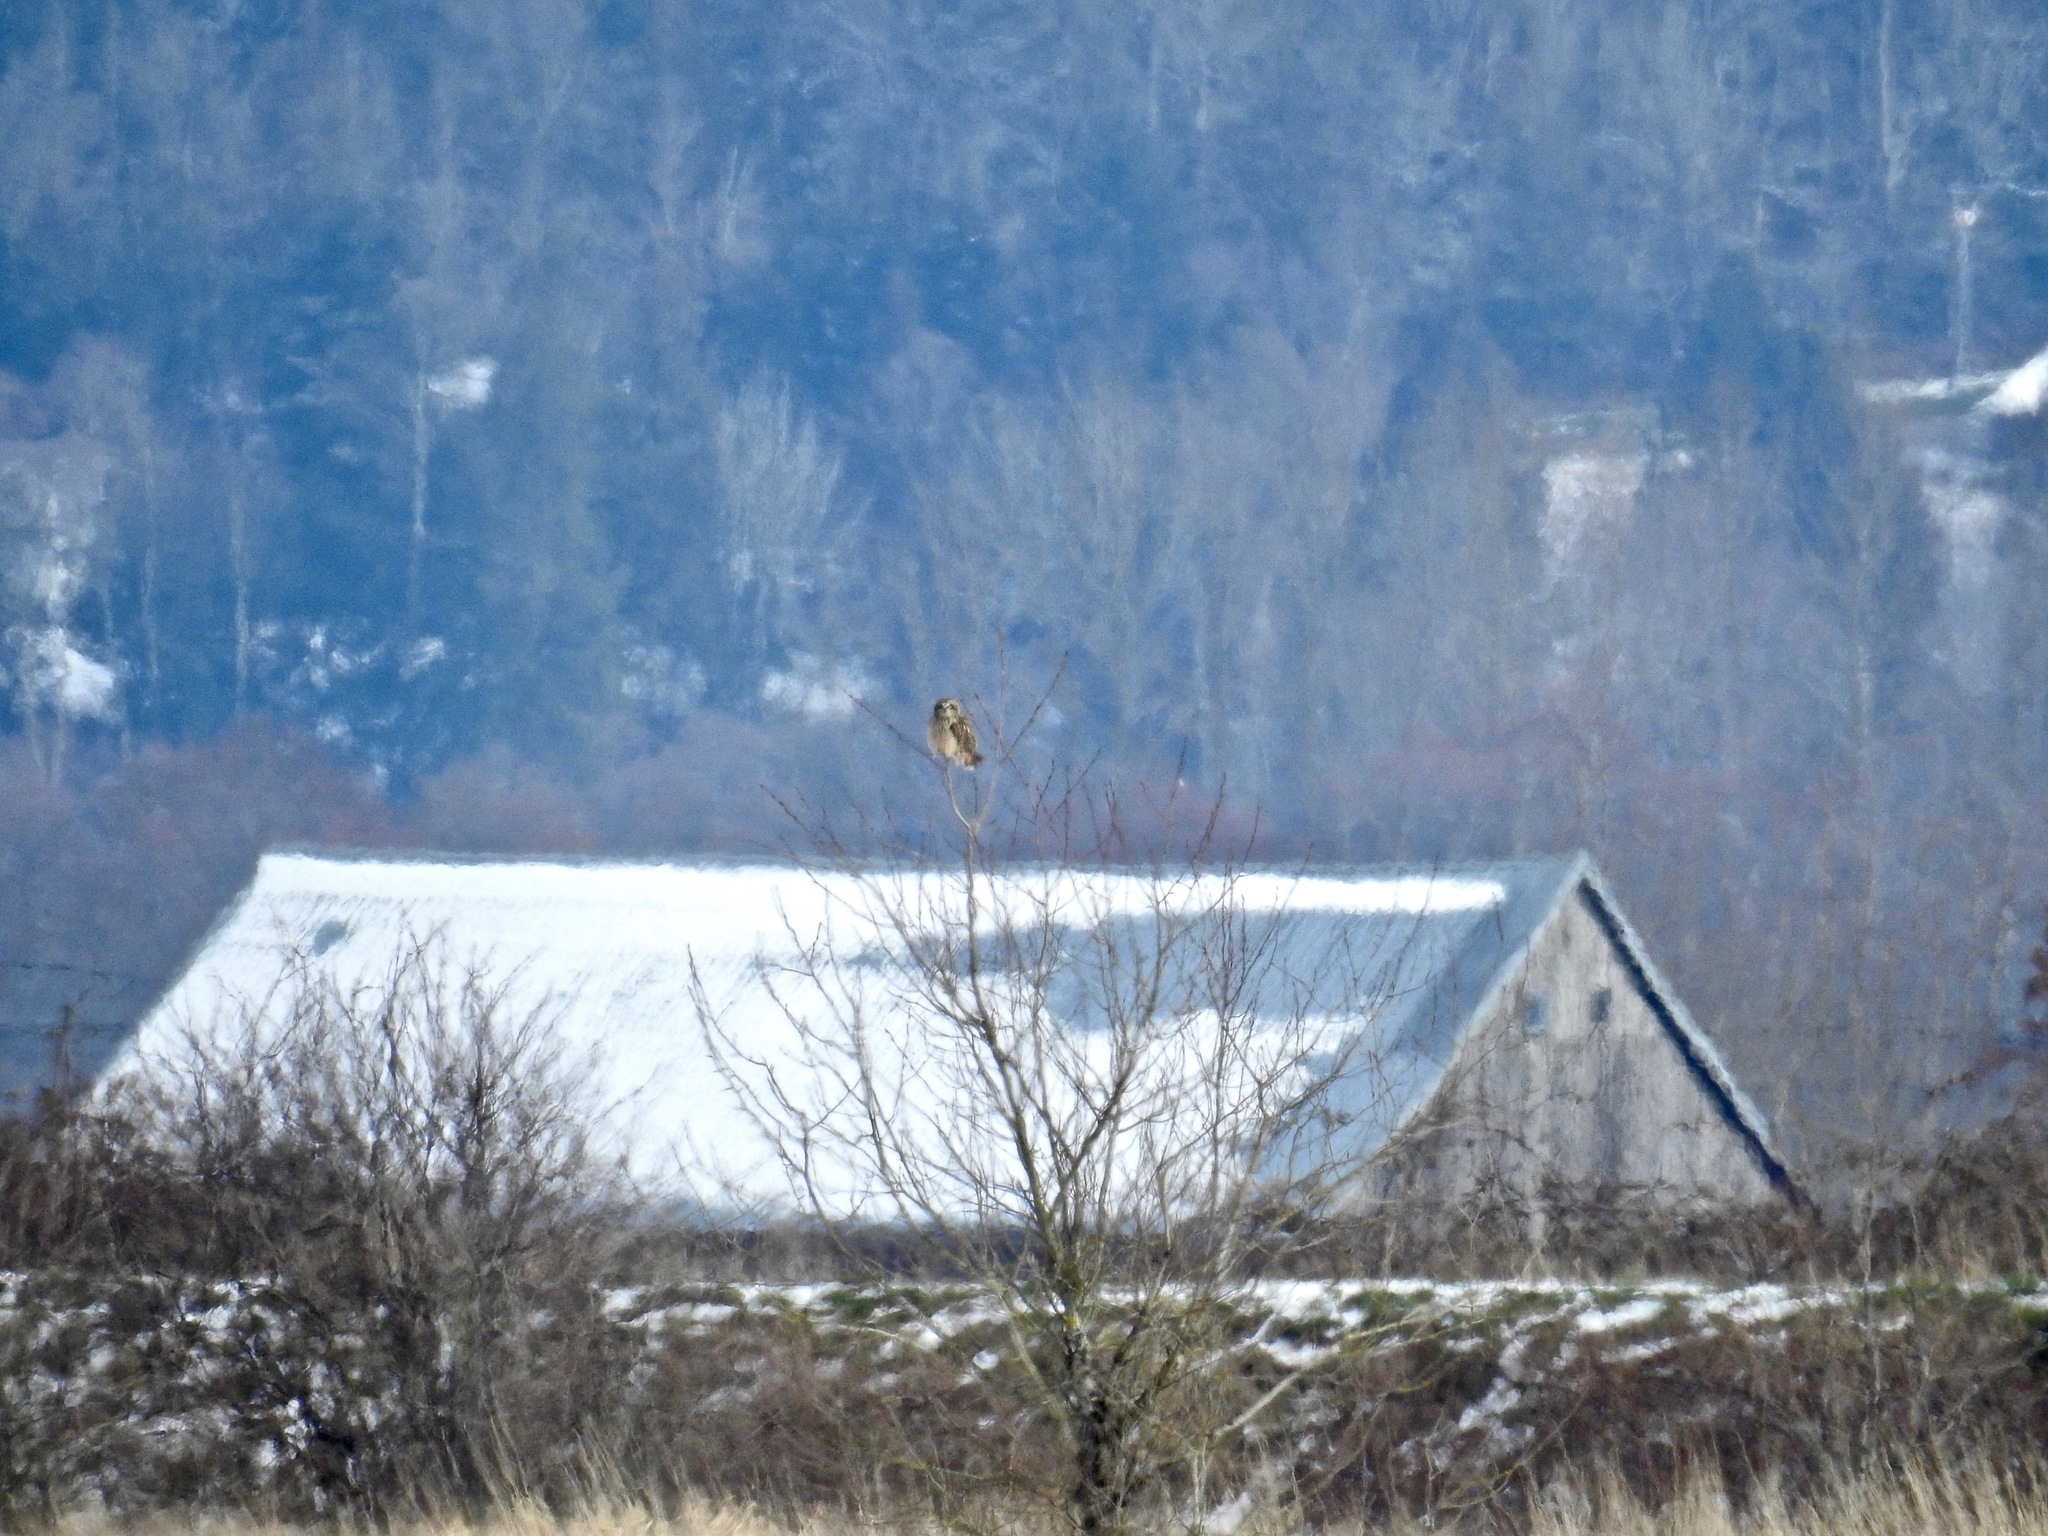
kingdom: Animalia
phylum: Chordata
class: Aves
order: Strigiformes
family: Strigidae
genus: Asio
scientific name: Asio flammeus
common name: Short-eared owl
